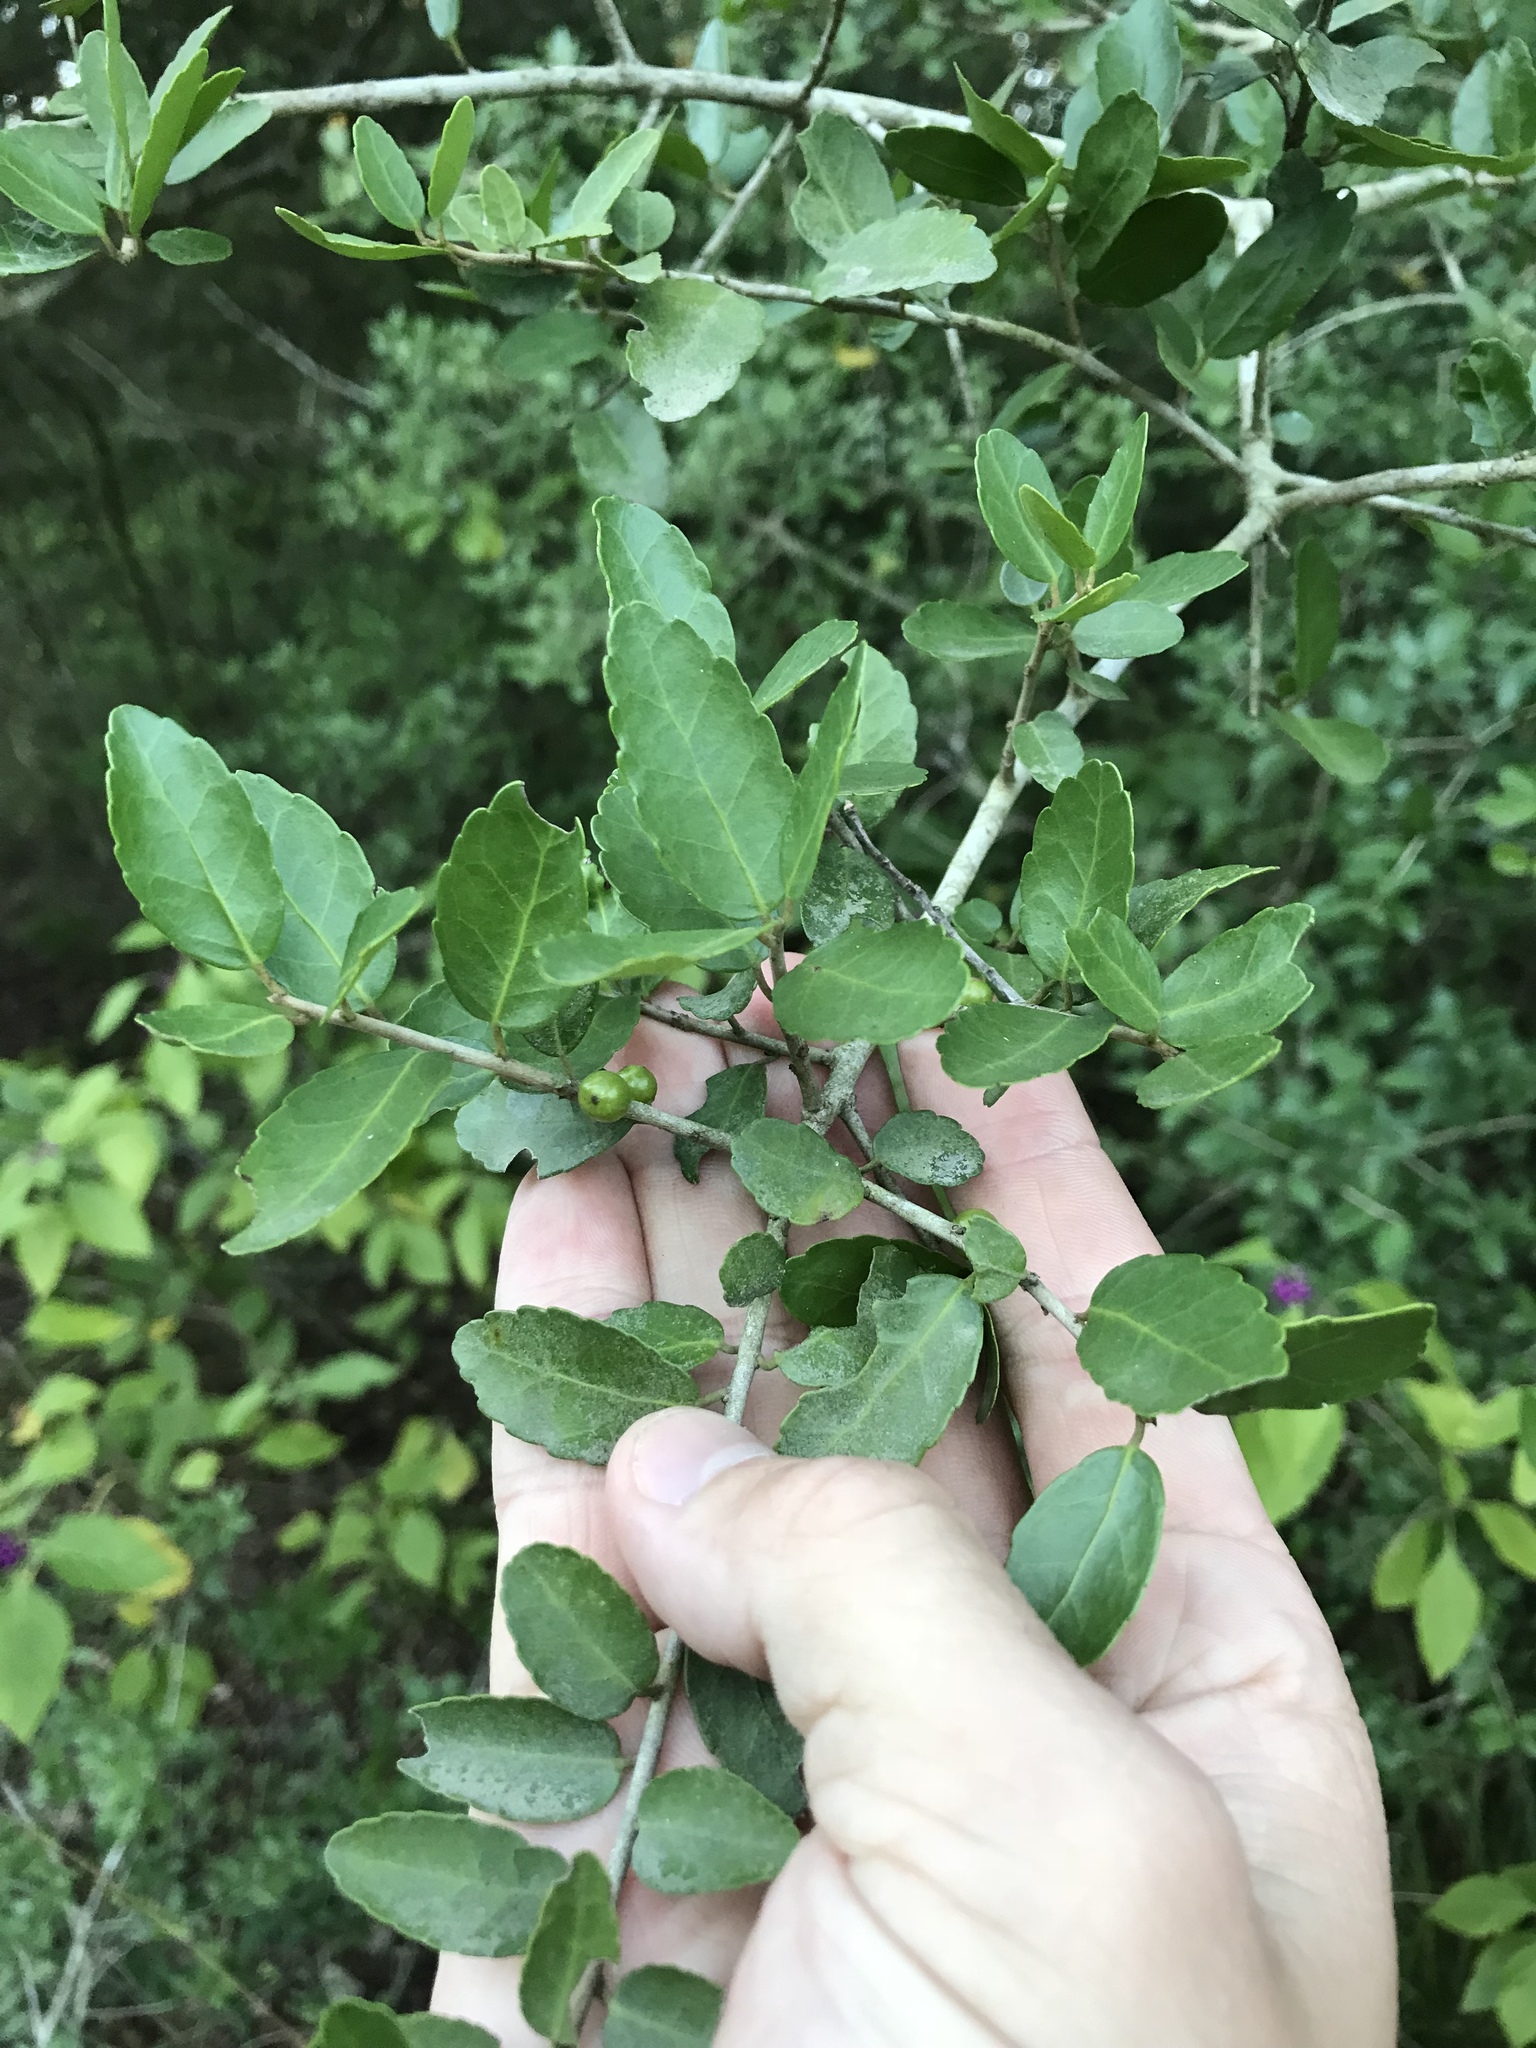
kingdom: Plantae
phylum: Tracheophyta
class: Magnoliopsida
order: Aquifoliales
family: Aquifoliaceae
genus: Ilex
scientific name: Ilex vomitoria
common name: Yaupon holly
